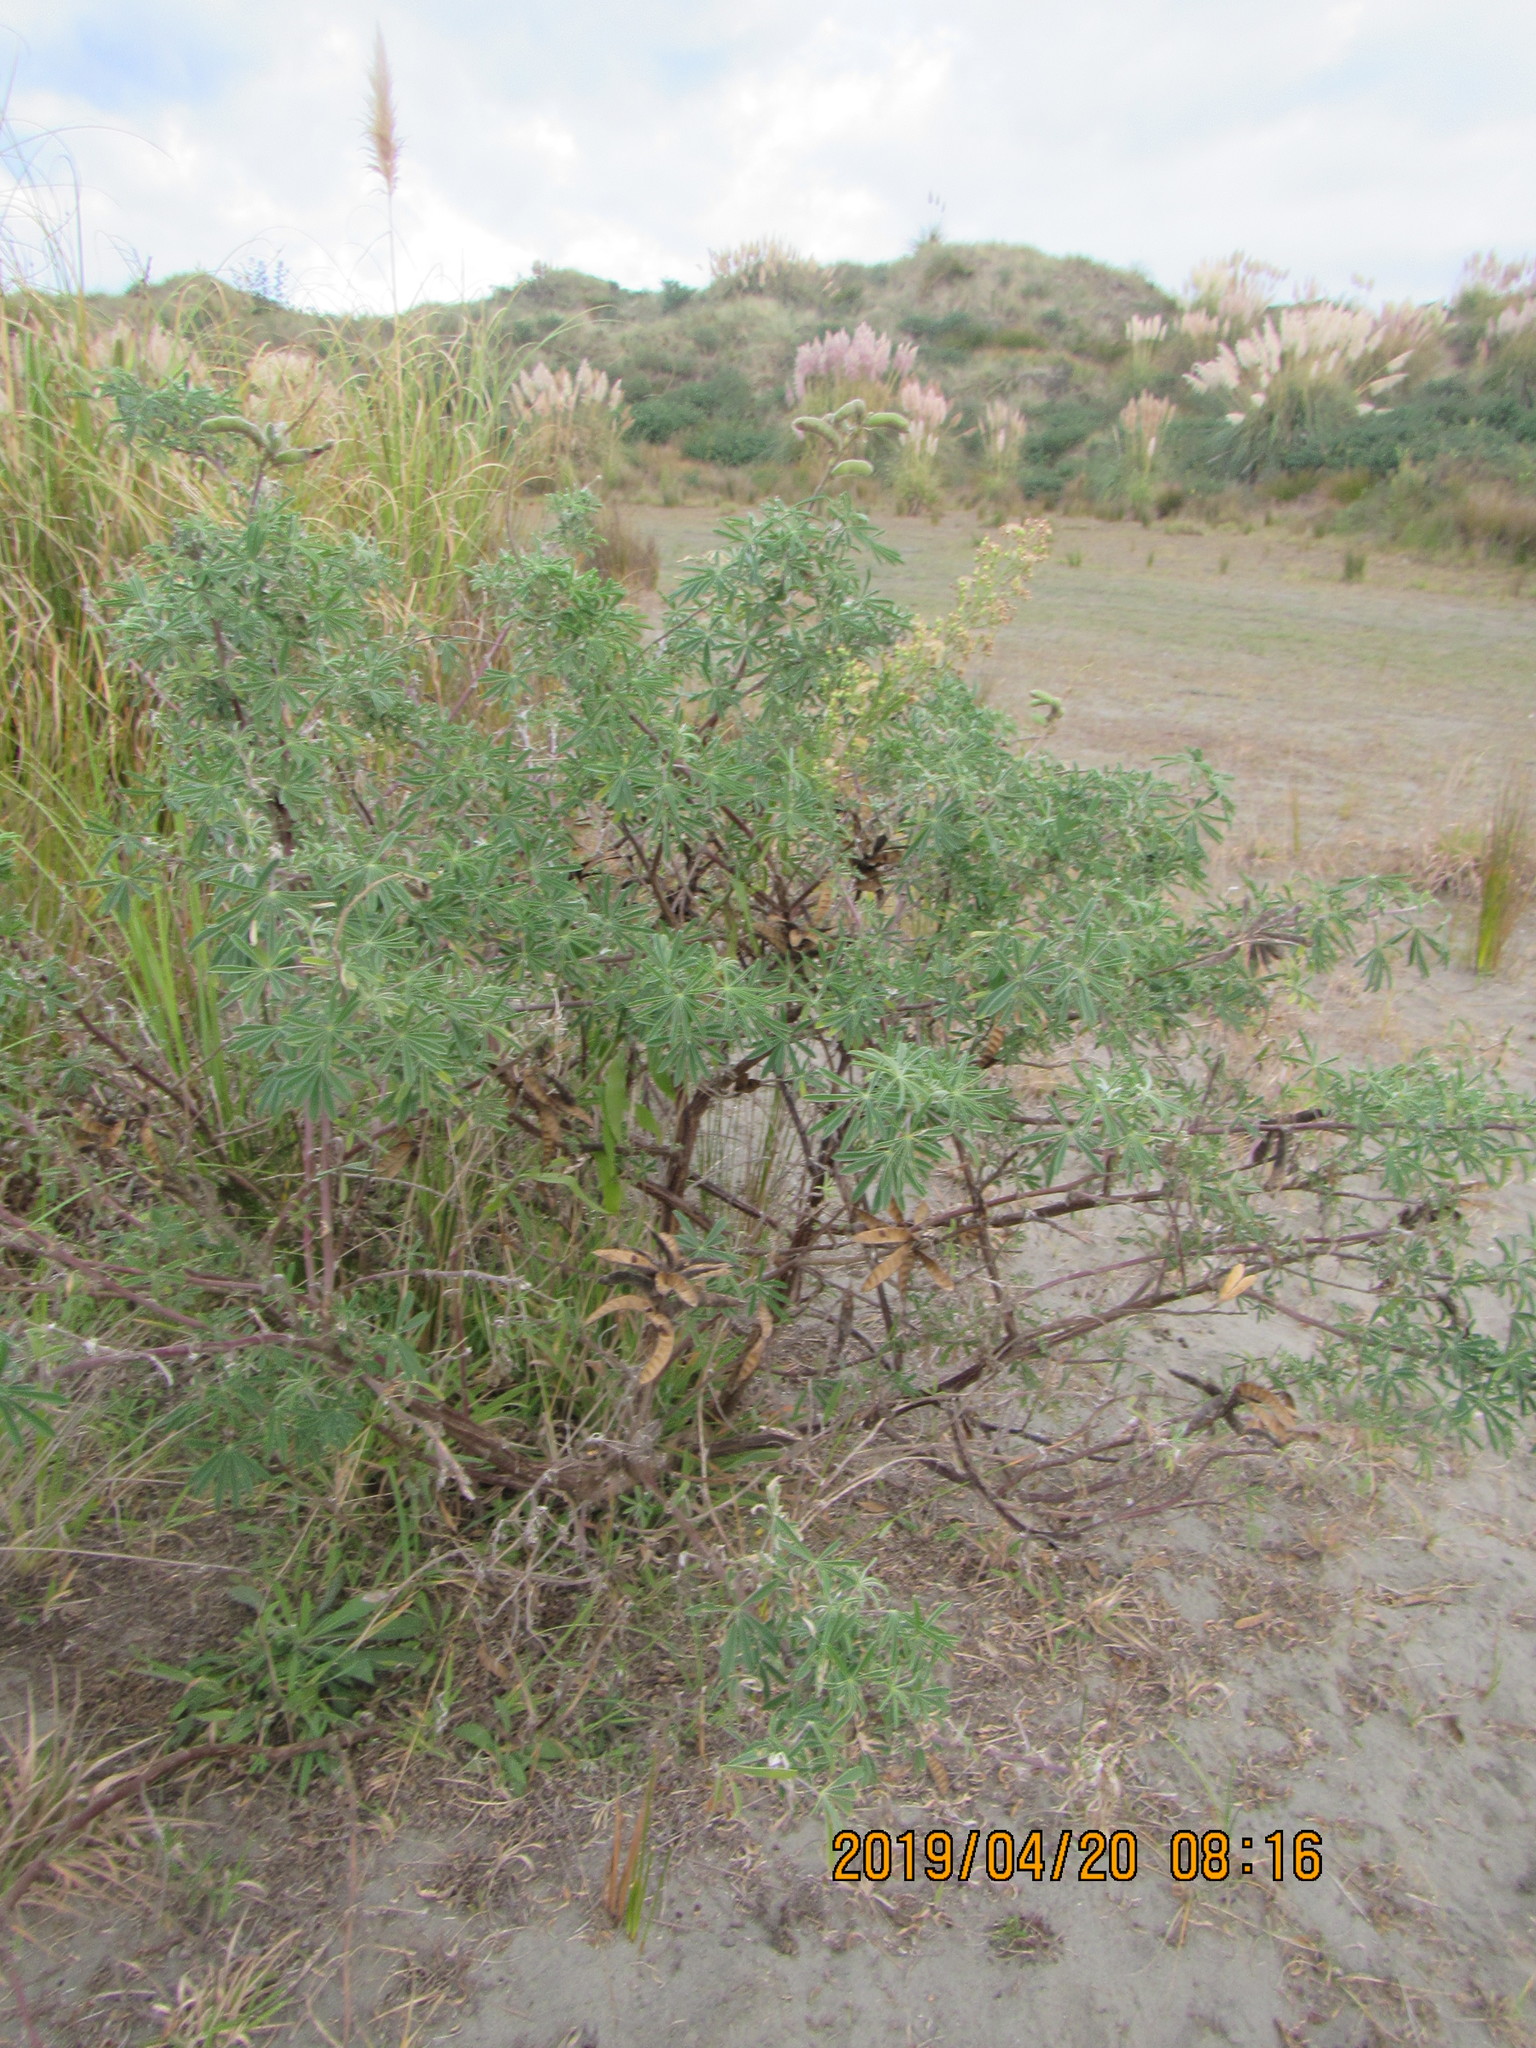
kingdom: Plantae
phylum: Tracheophyta
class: Magnoliopsida
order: Fabales
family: Fabaceae
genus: Lupinus
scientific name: Lupinus arboreus
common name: Yellow bush lupine
